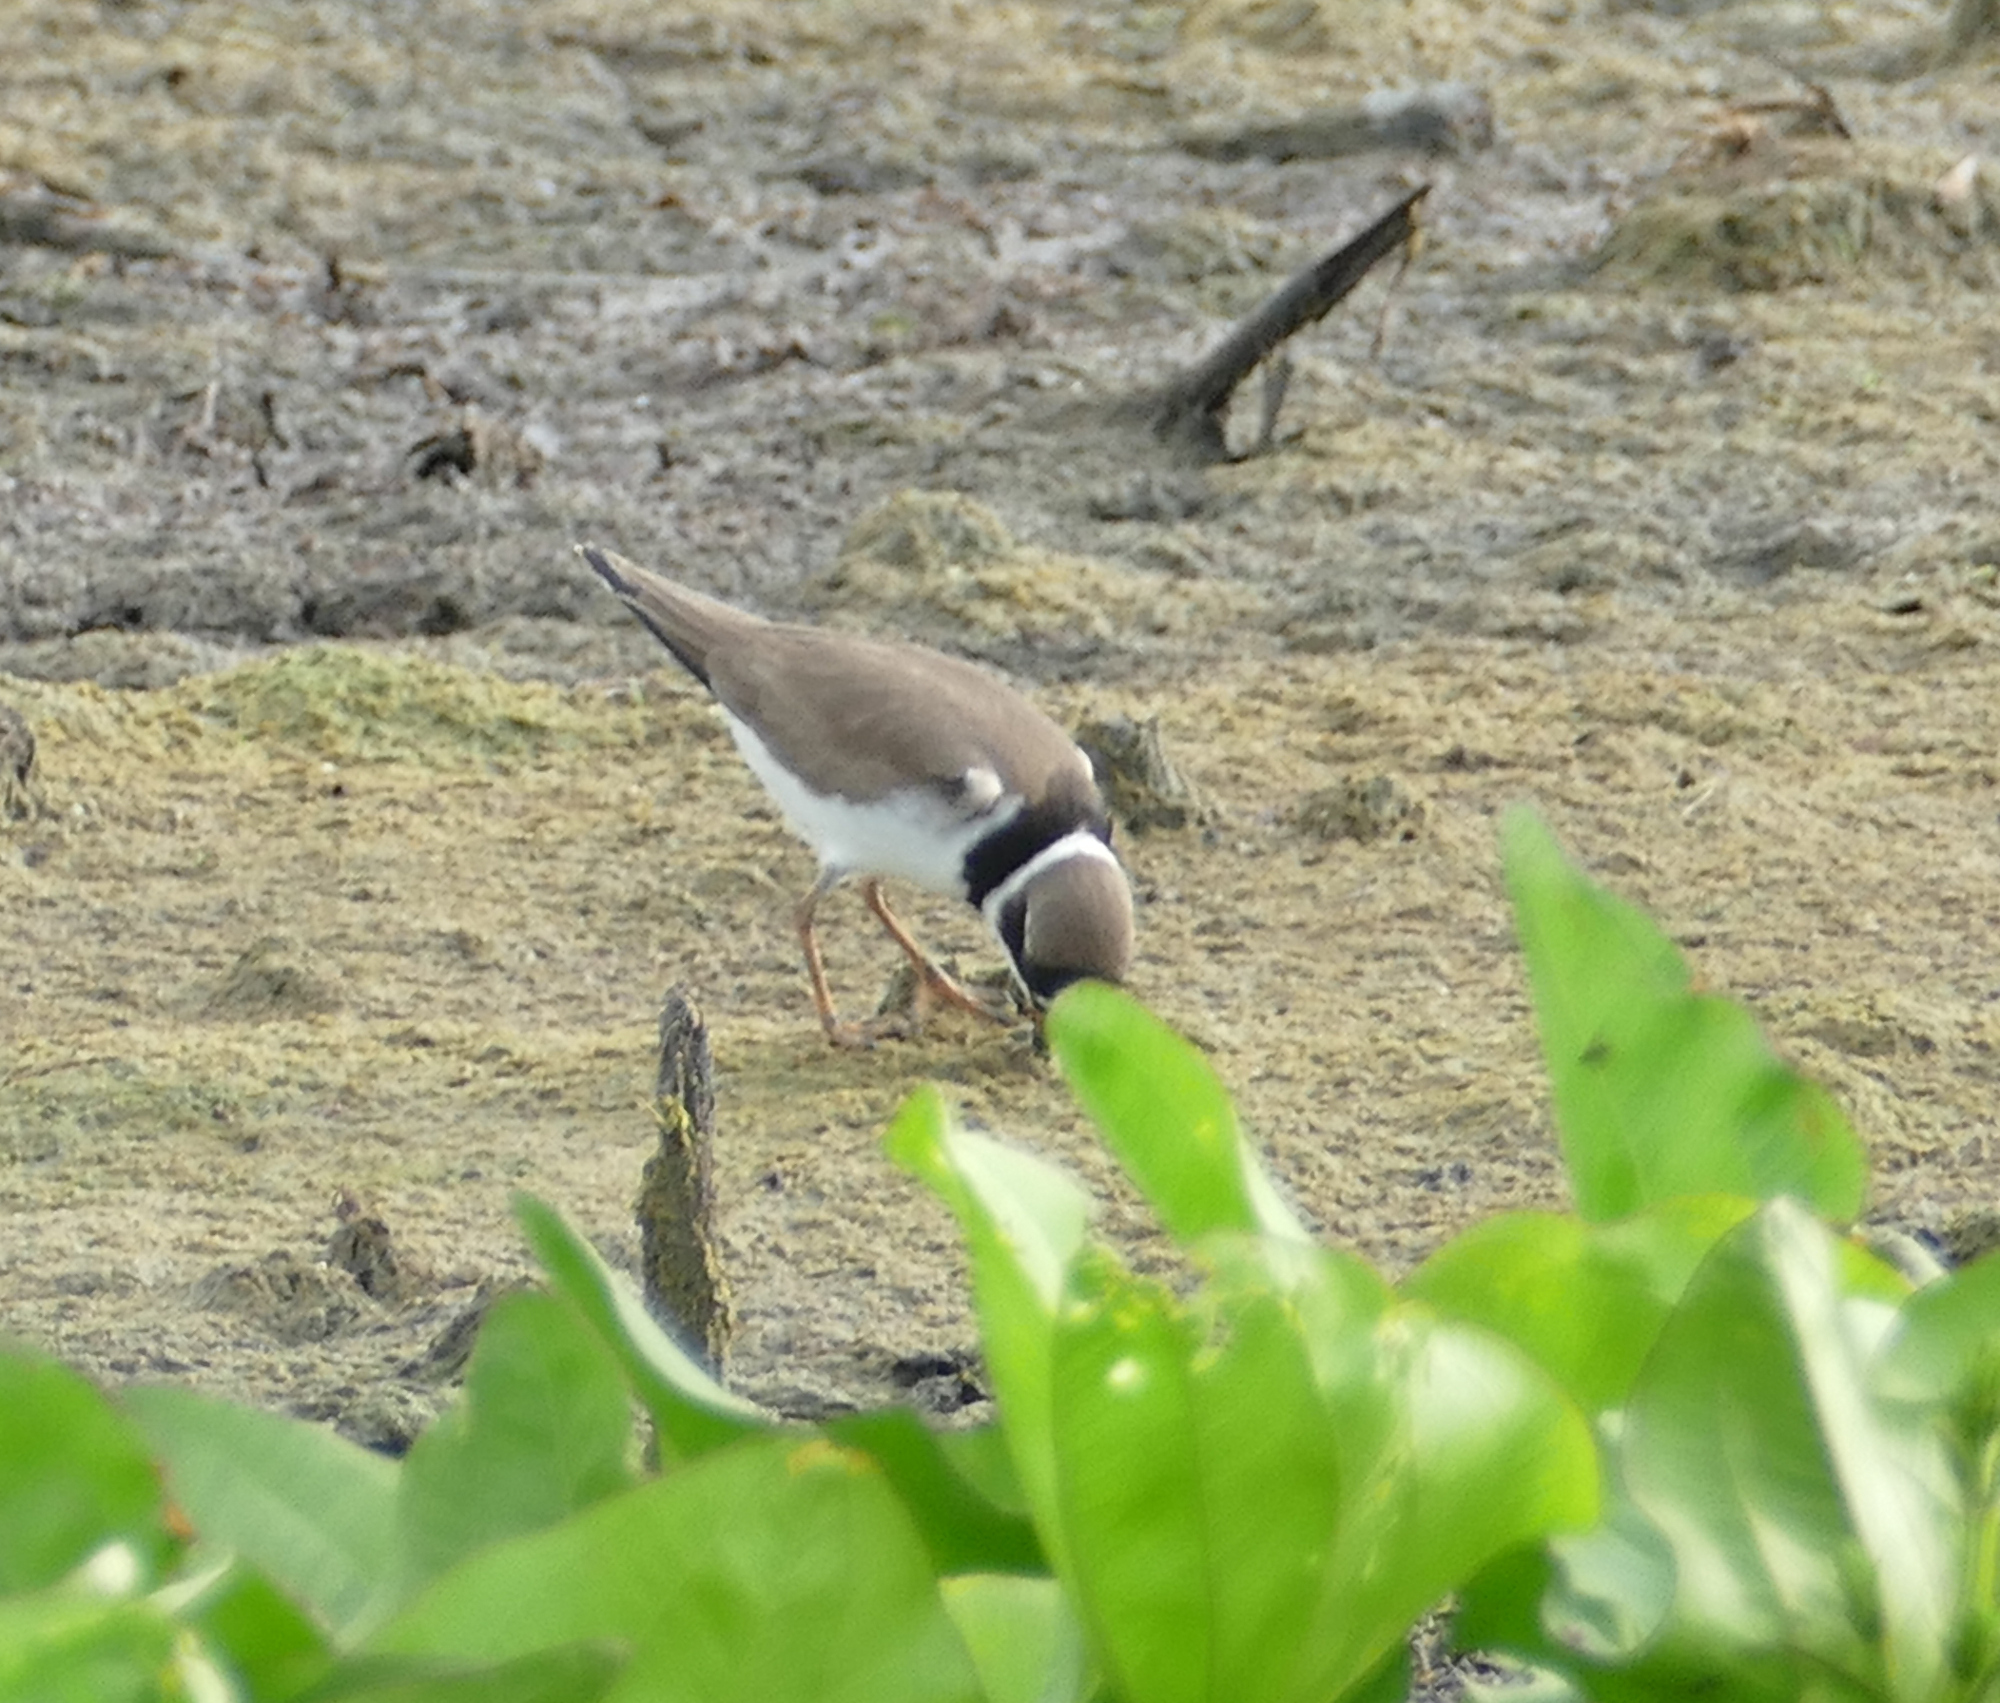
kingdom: Animalia
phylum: Chordata
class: Aves
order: Charadriiformes
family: Charadriidae
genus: Charadrius
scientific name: Charadrius semipalmatus
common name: Semipalmated plover
